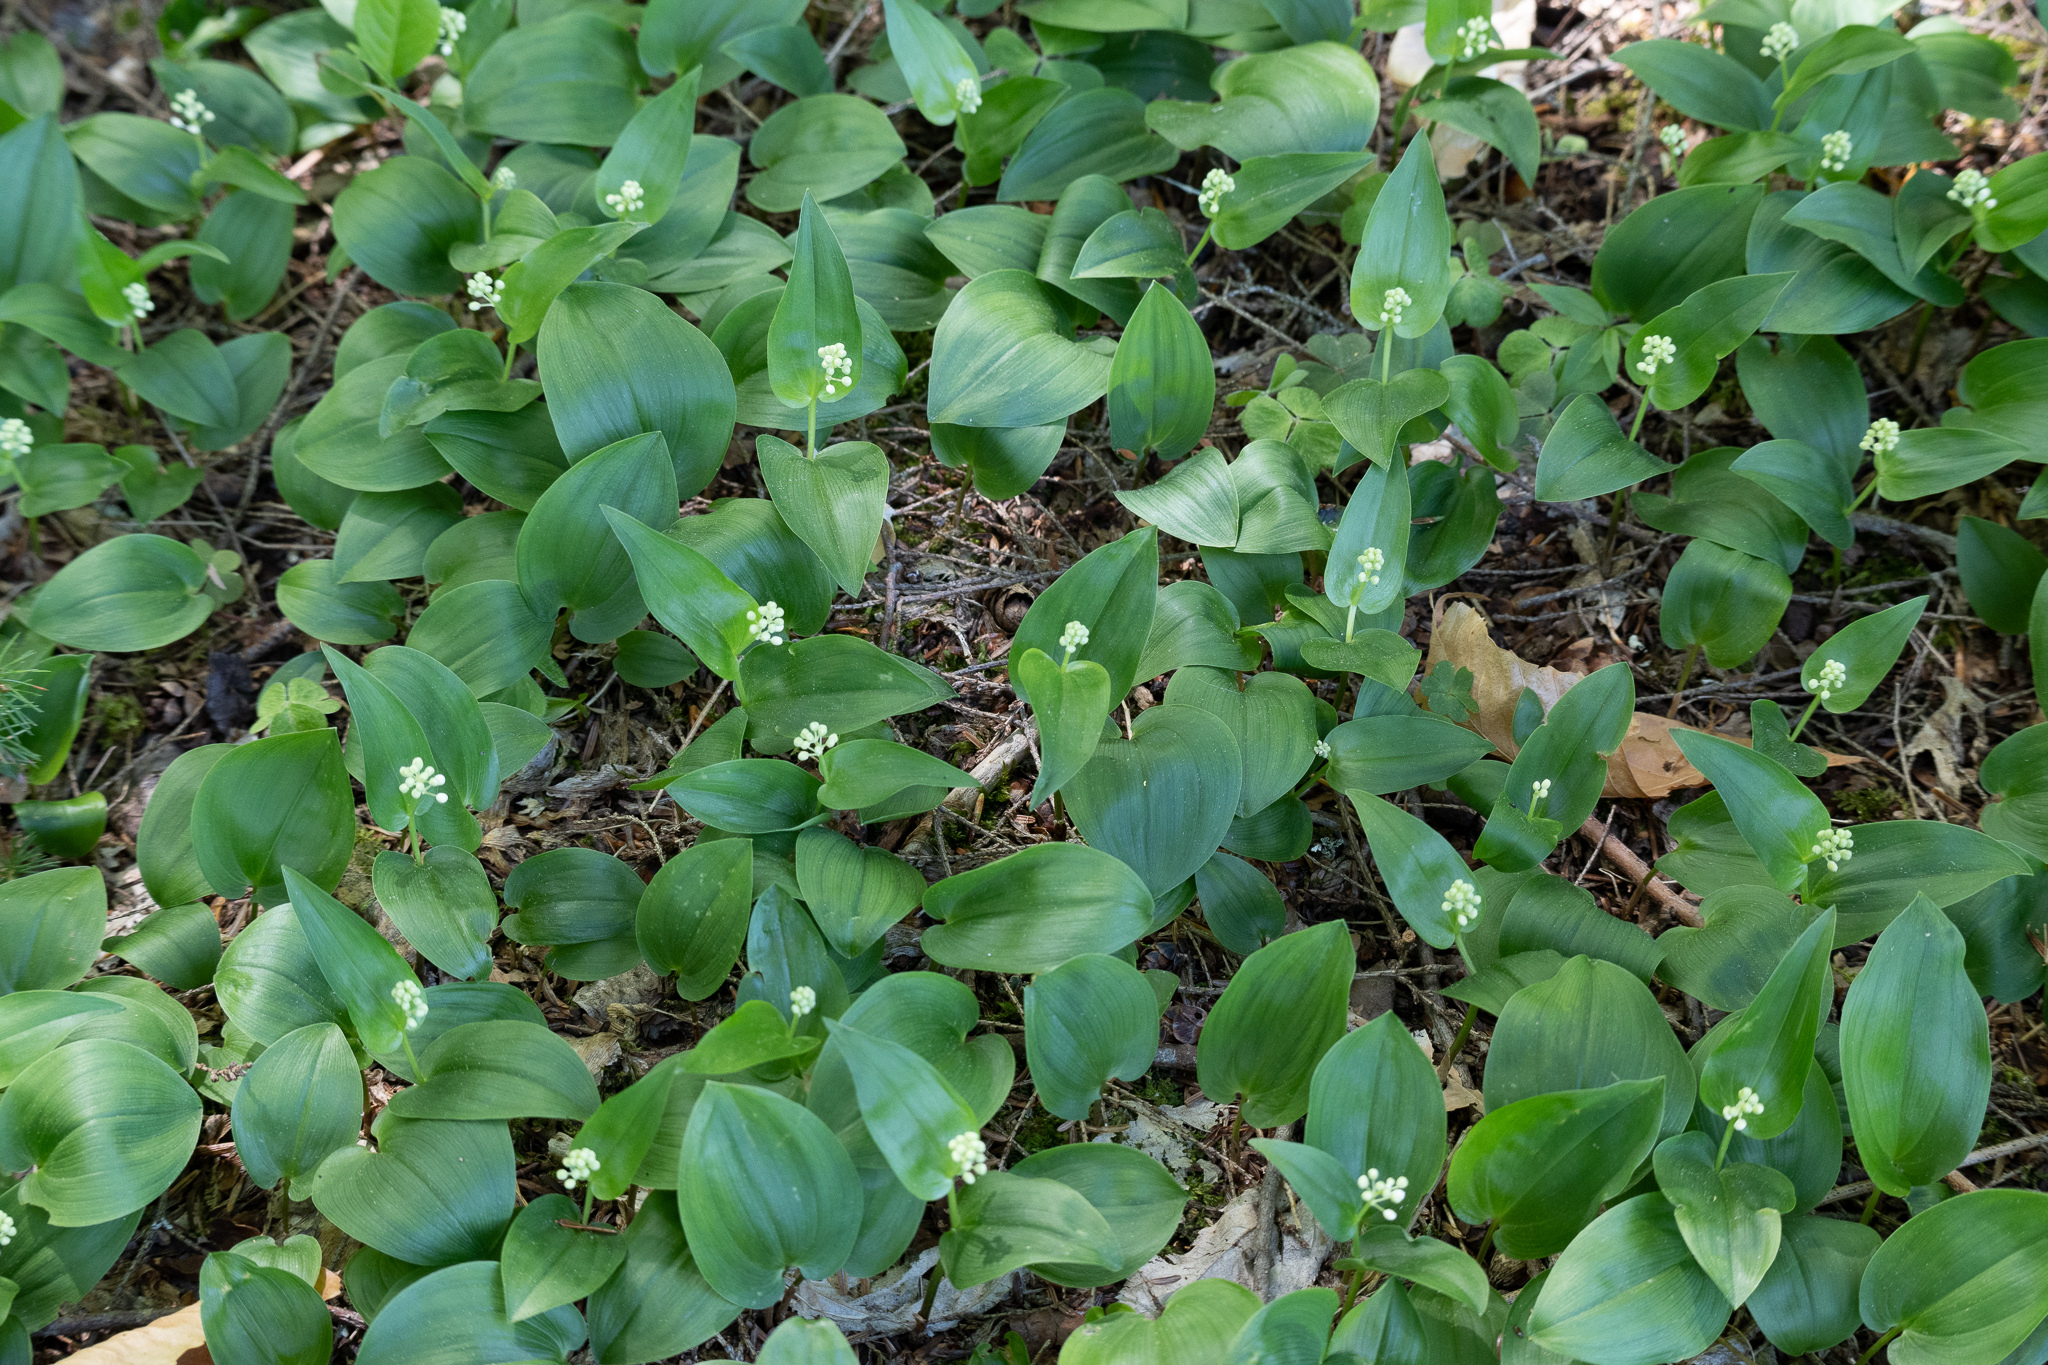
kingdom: Plantae
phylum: Tracheophyta
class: Liliopsida
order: Asparagales
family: Asparagaceae
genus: Maianthemum
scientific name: Maianthemum canadense
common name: False lily-of-the-valley
